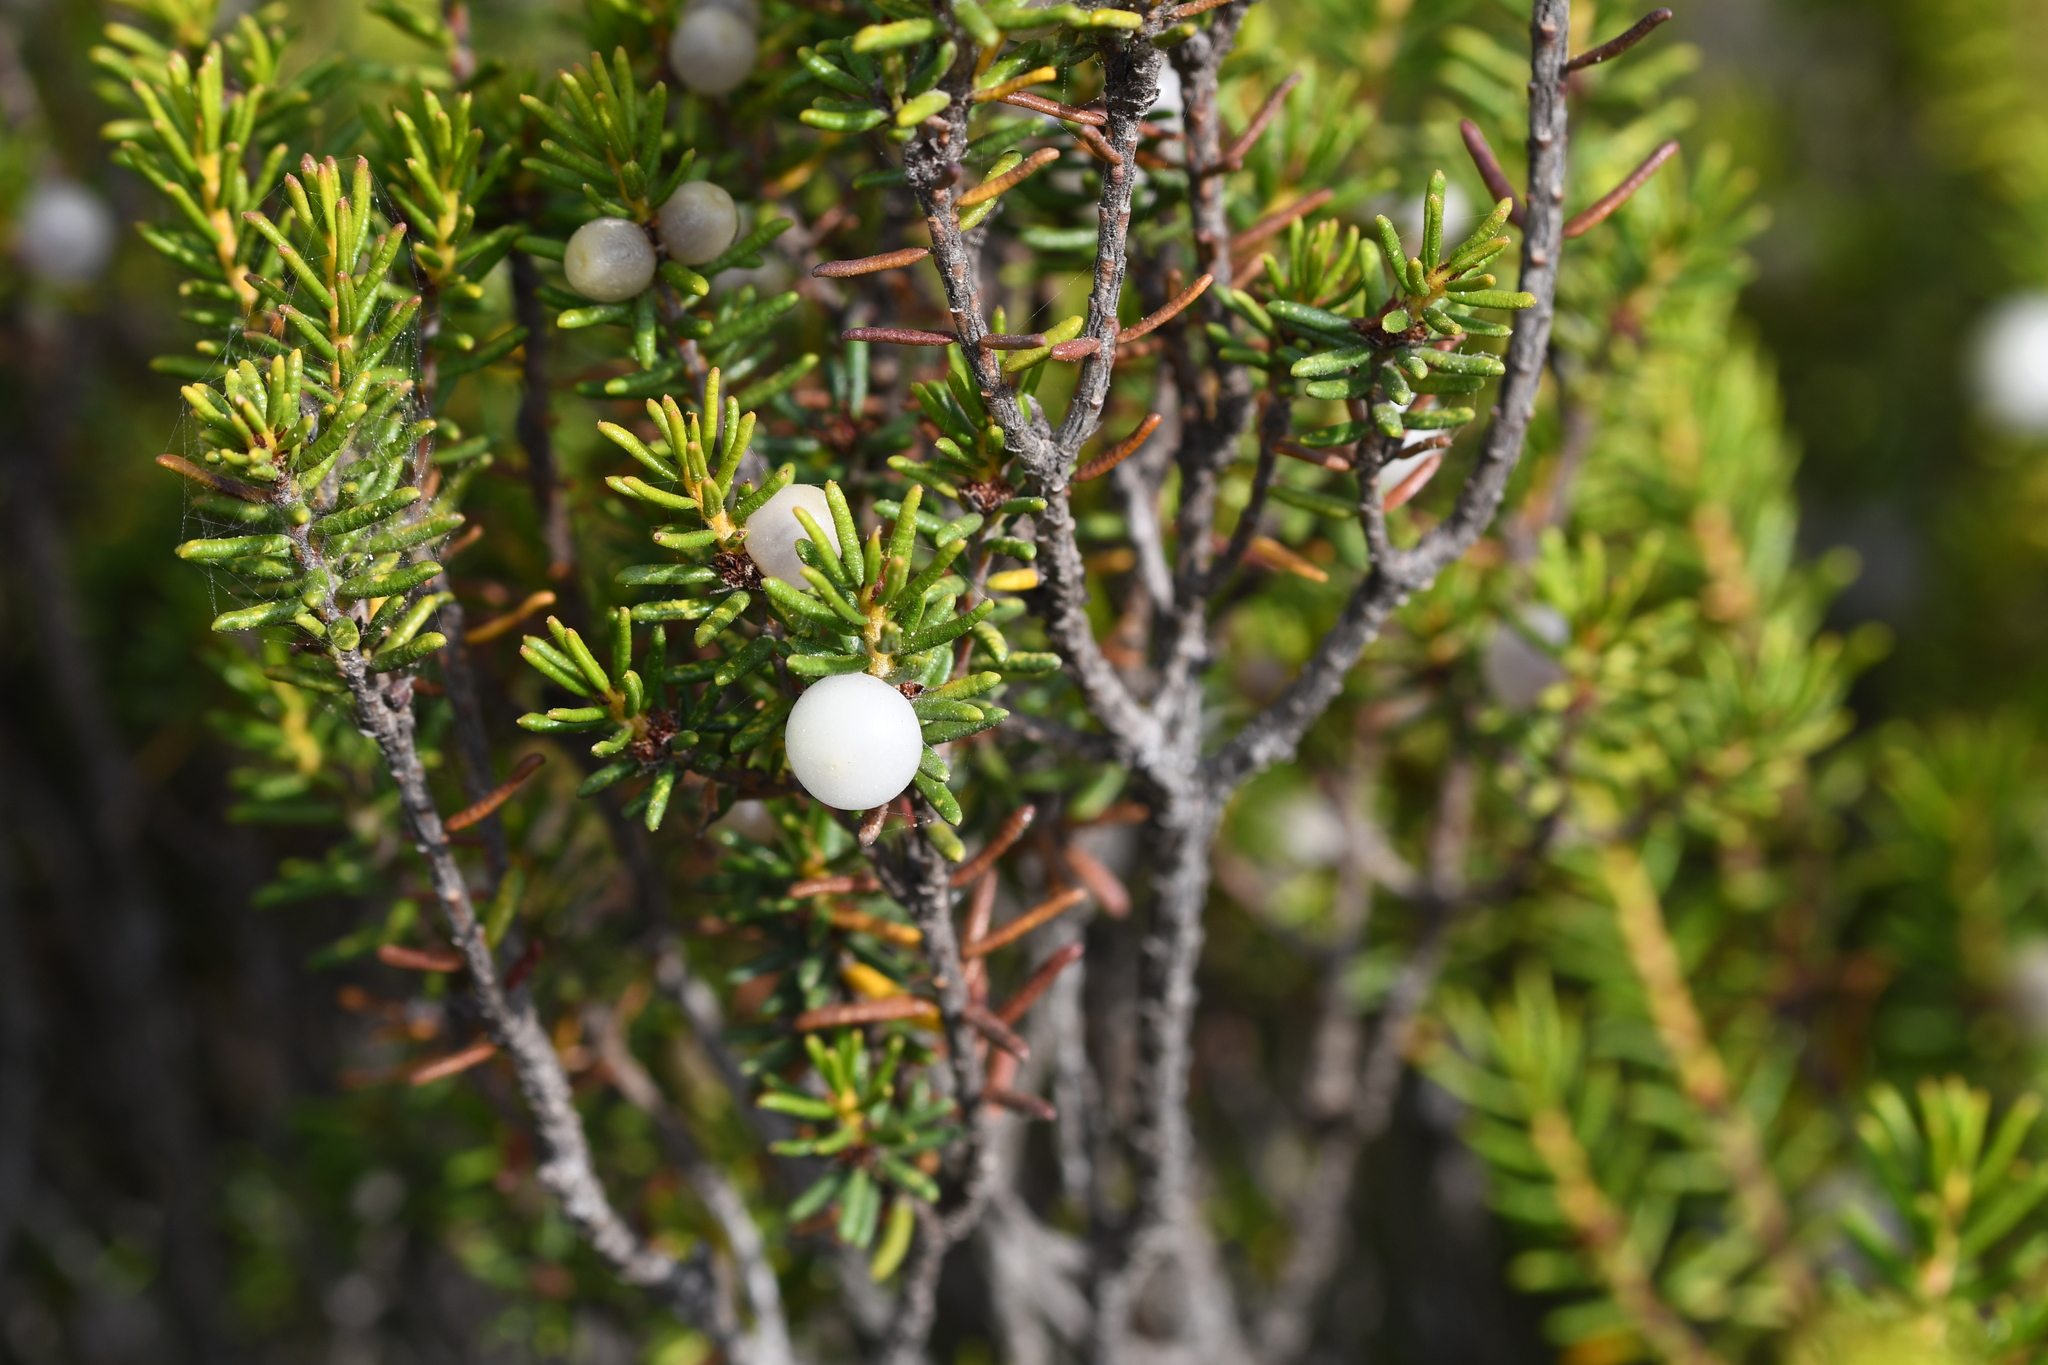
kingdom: Plantae
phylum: Tracheophyta
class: Magnoliopsida
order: Ericales
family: Ericaceae
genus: Corema
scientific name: Corema album
